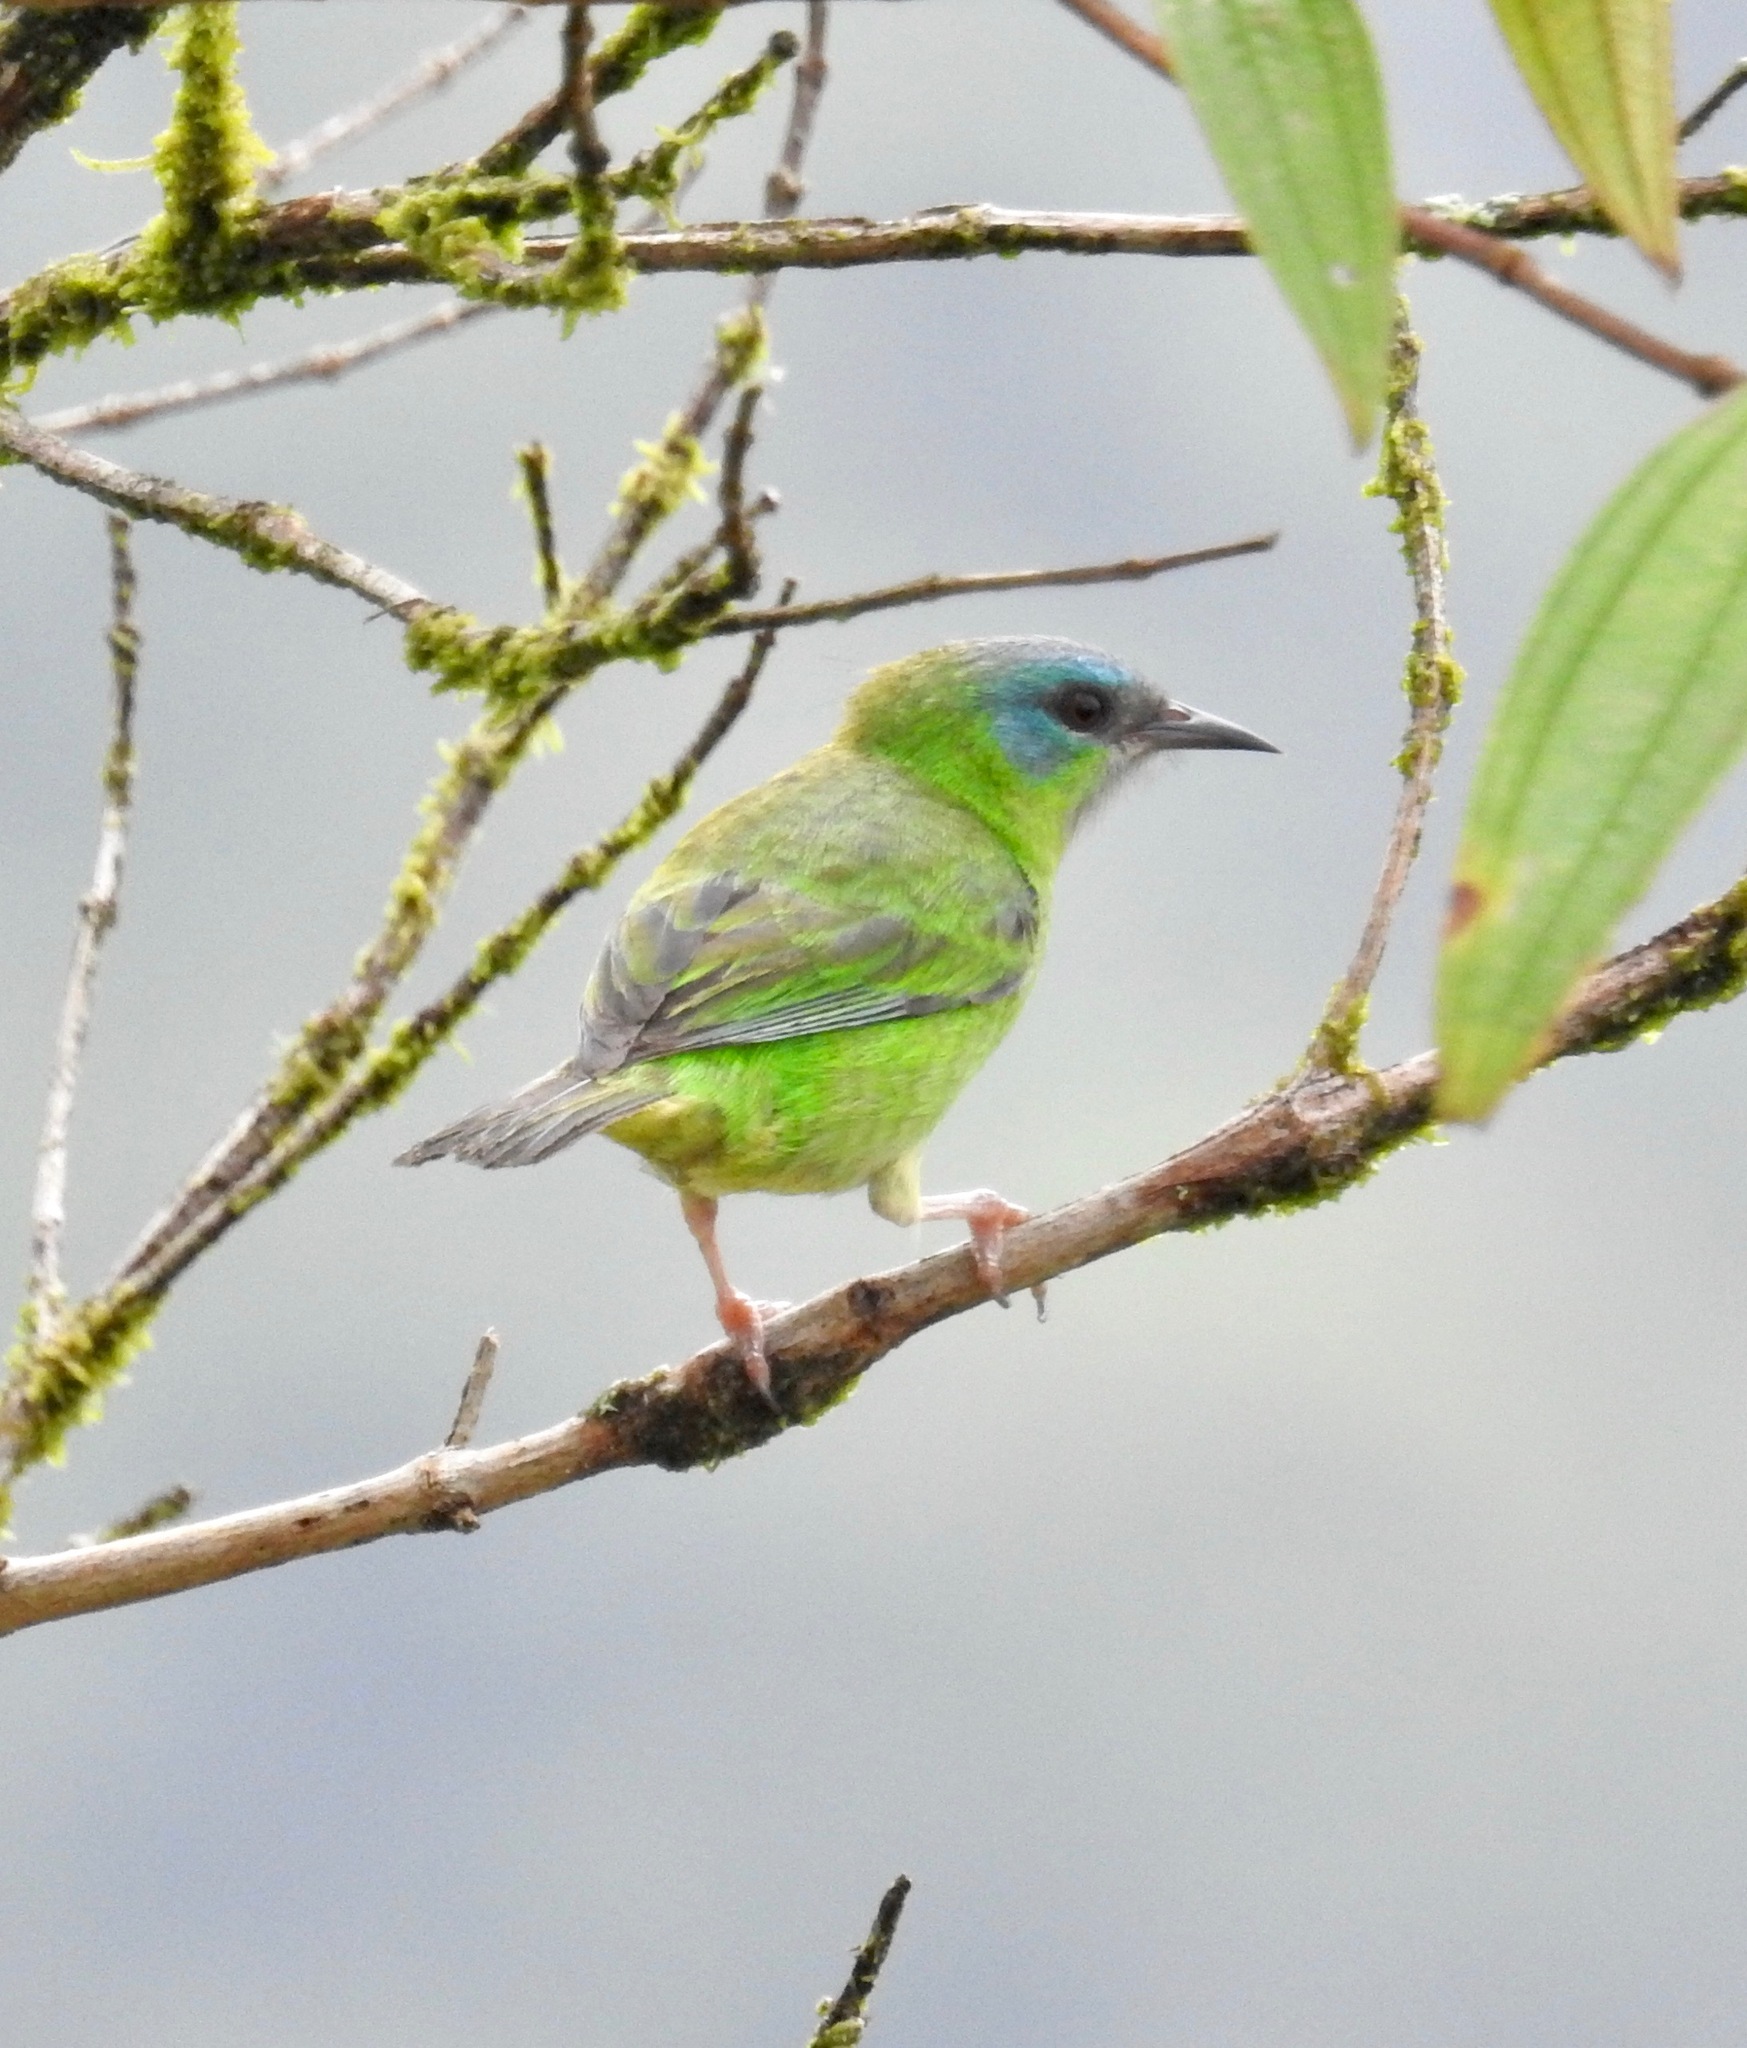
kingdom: Animalia
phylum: Chordata
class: Aves
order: Passeriformes
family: Thraupidae
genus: Dacnis
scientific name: Dacnis cayana
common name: Blue dacnis
